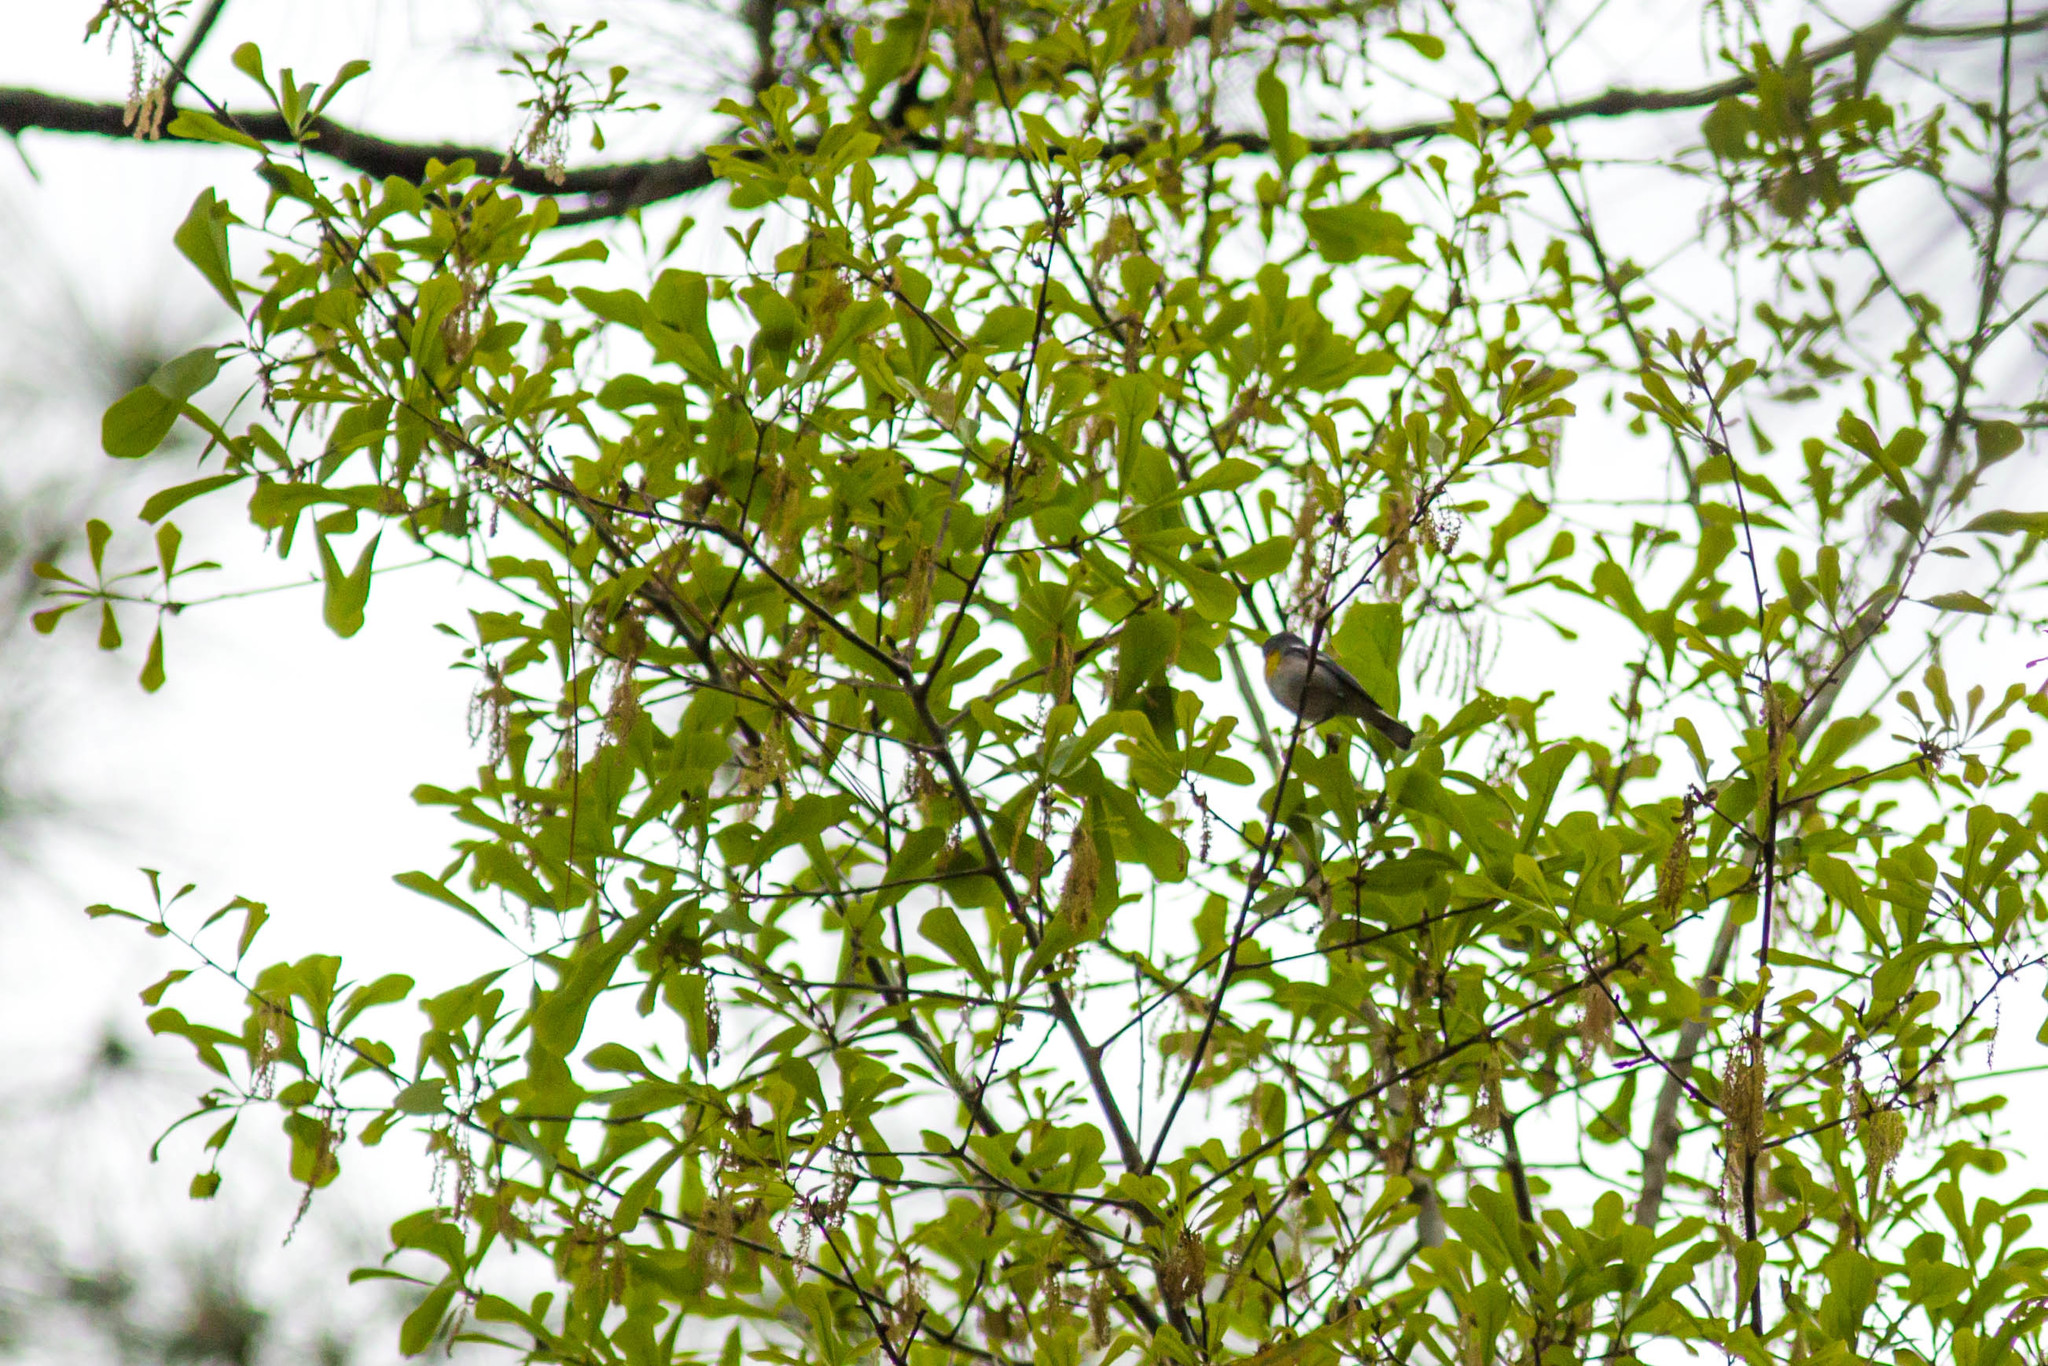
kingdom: Animalia
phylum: Chordata
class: Aves
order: Passeriformes
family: Parulidae
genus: Setophaga
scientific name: Setophaga americana
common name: Northern parula
